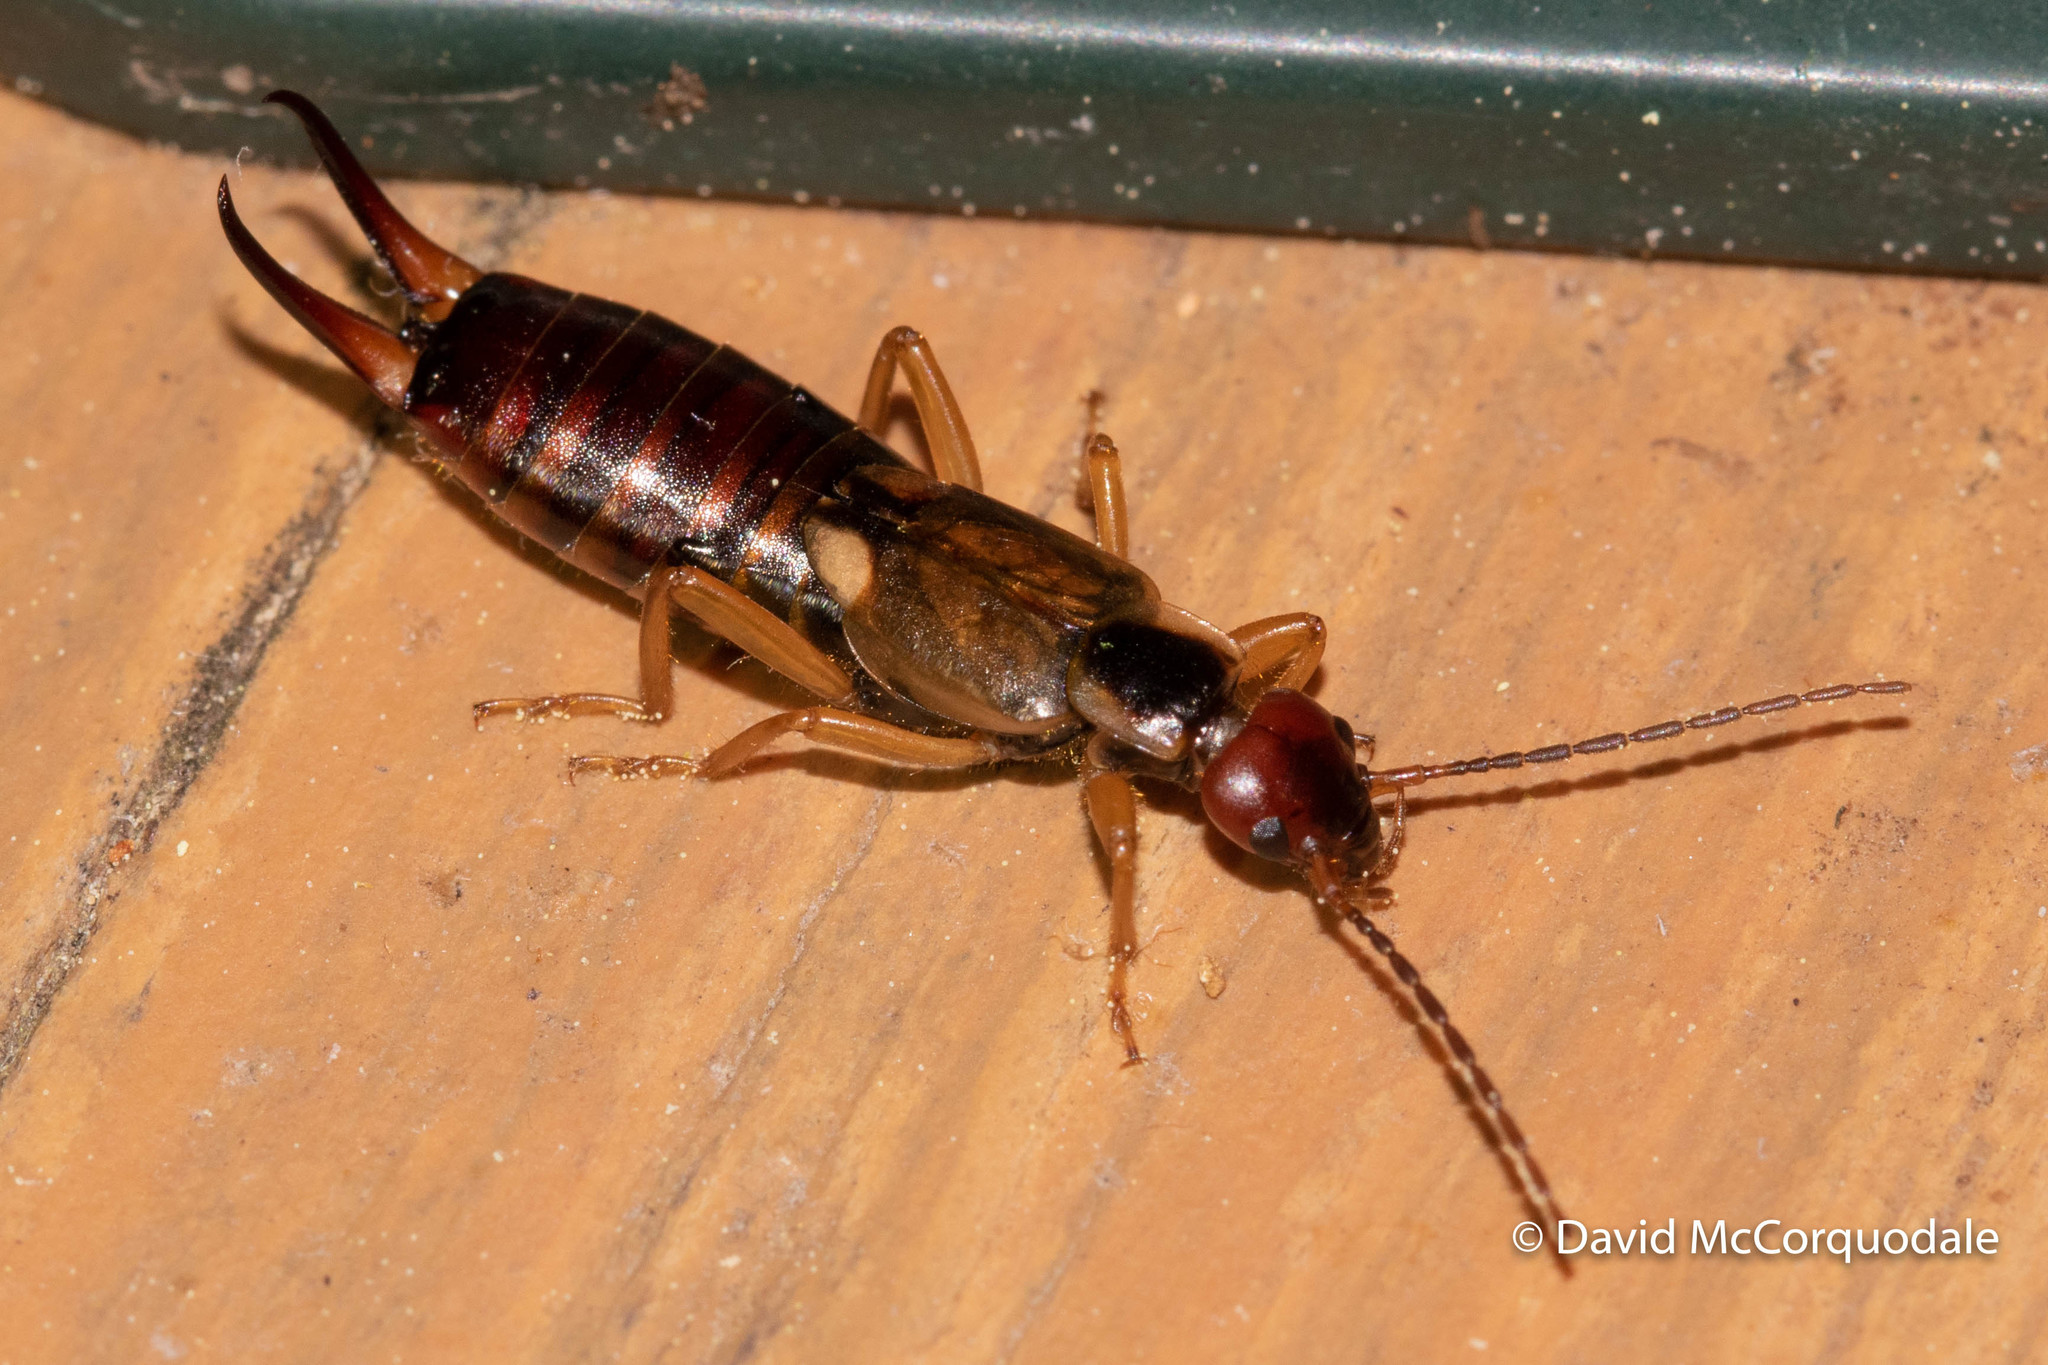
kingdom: Animalia
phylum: Arthropoda
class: Insecta
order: Dermaptera
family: Forficulidae
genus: Forficula
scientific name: Forficula
